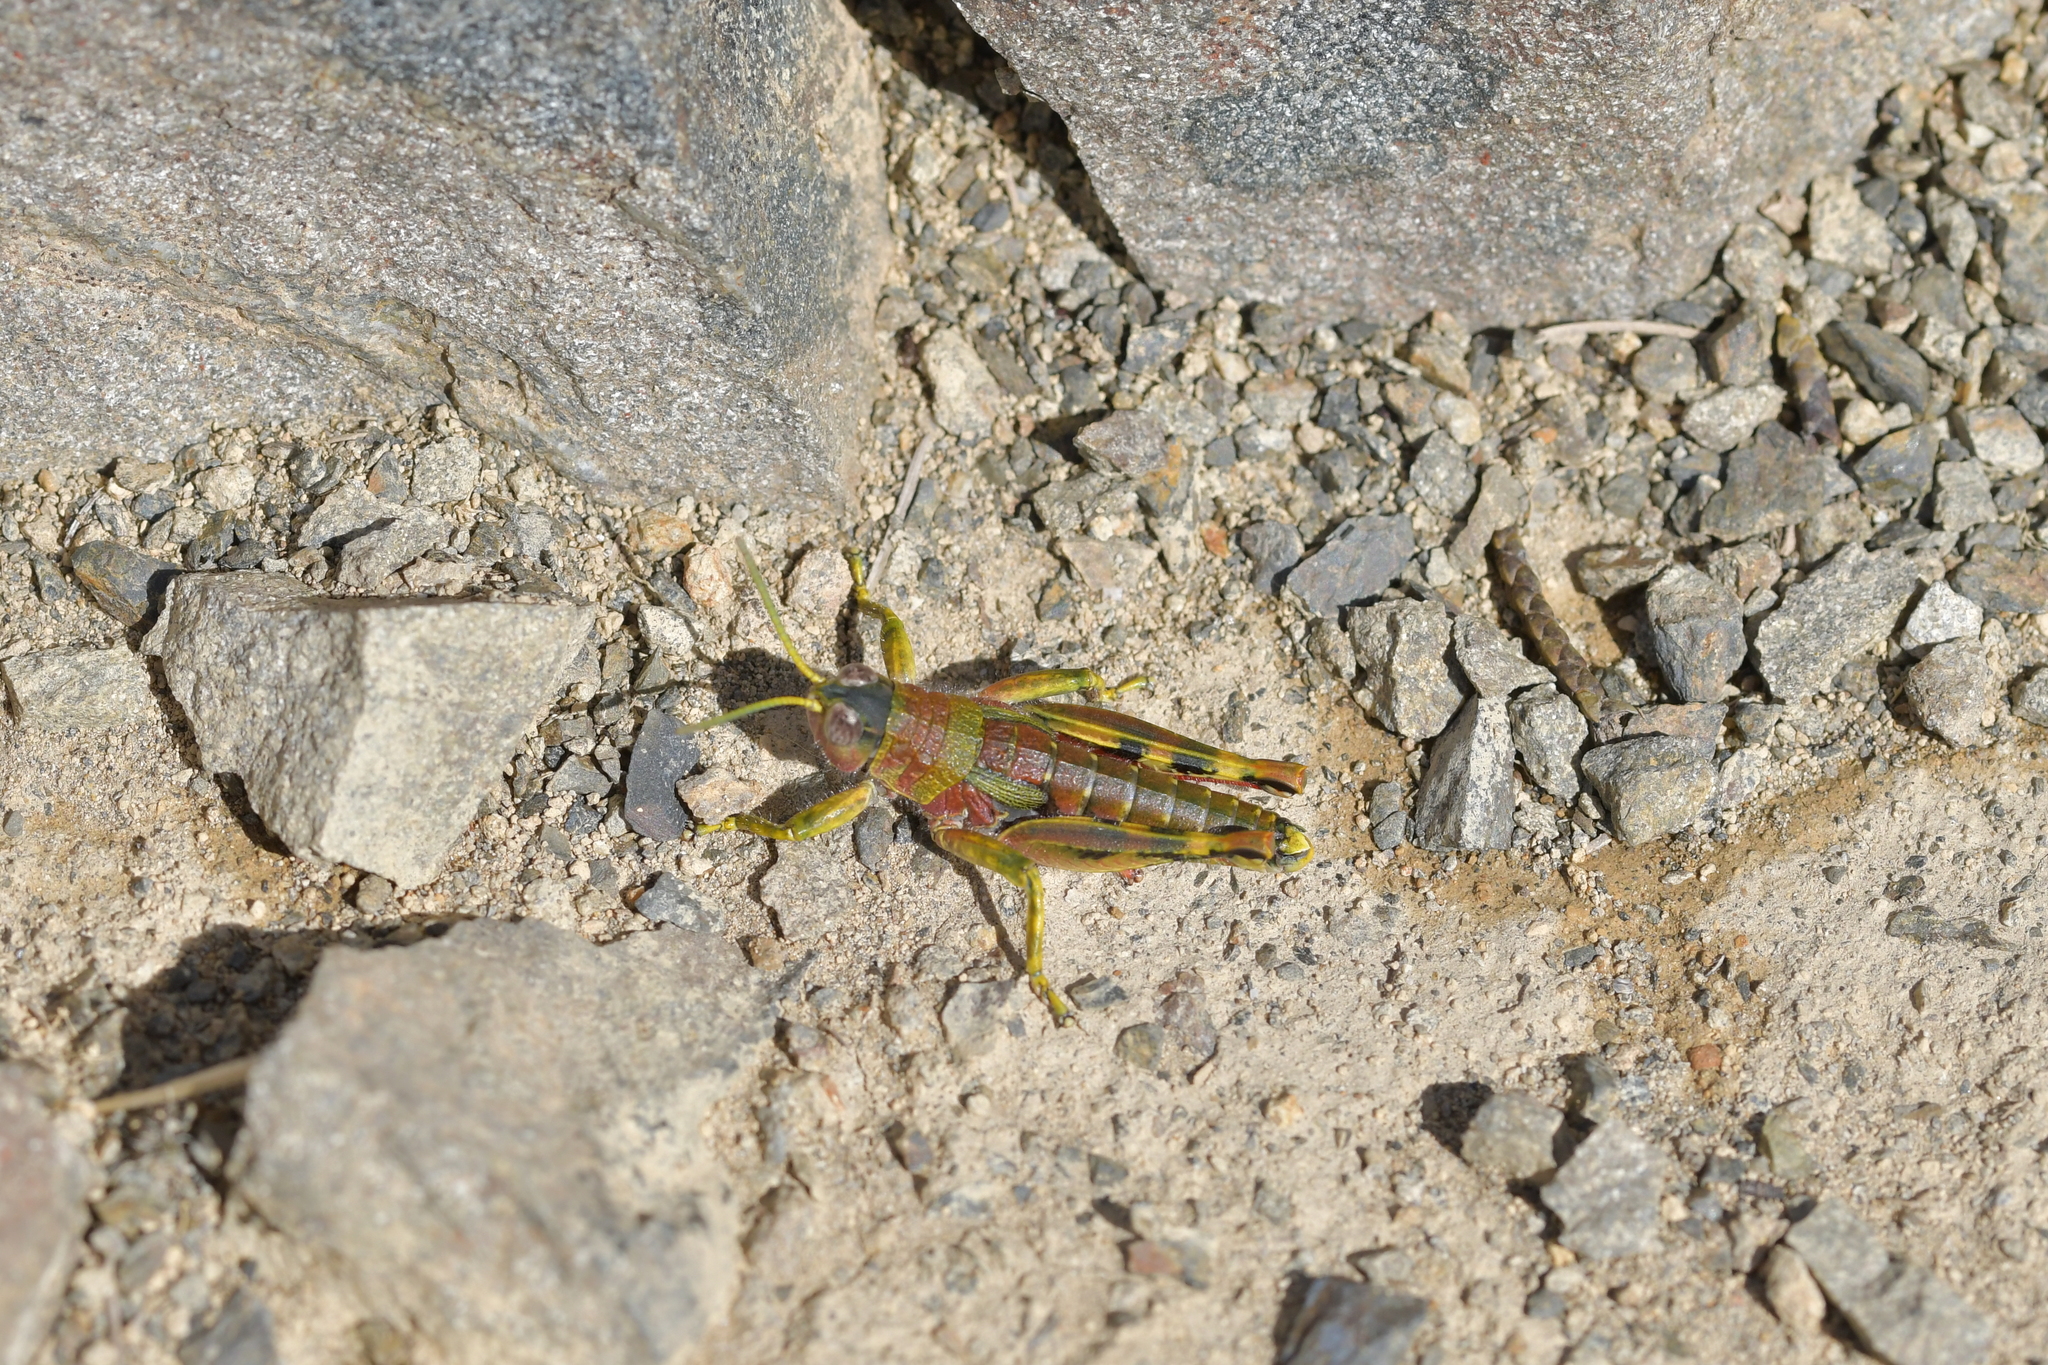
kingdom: Animalia
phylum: Arthropoda
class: Insecta
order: Orthoptera
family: Acrididae
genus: Sigaus
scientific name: Sigaus
